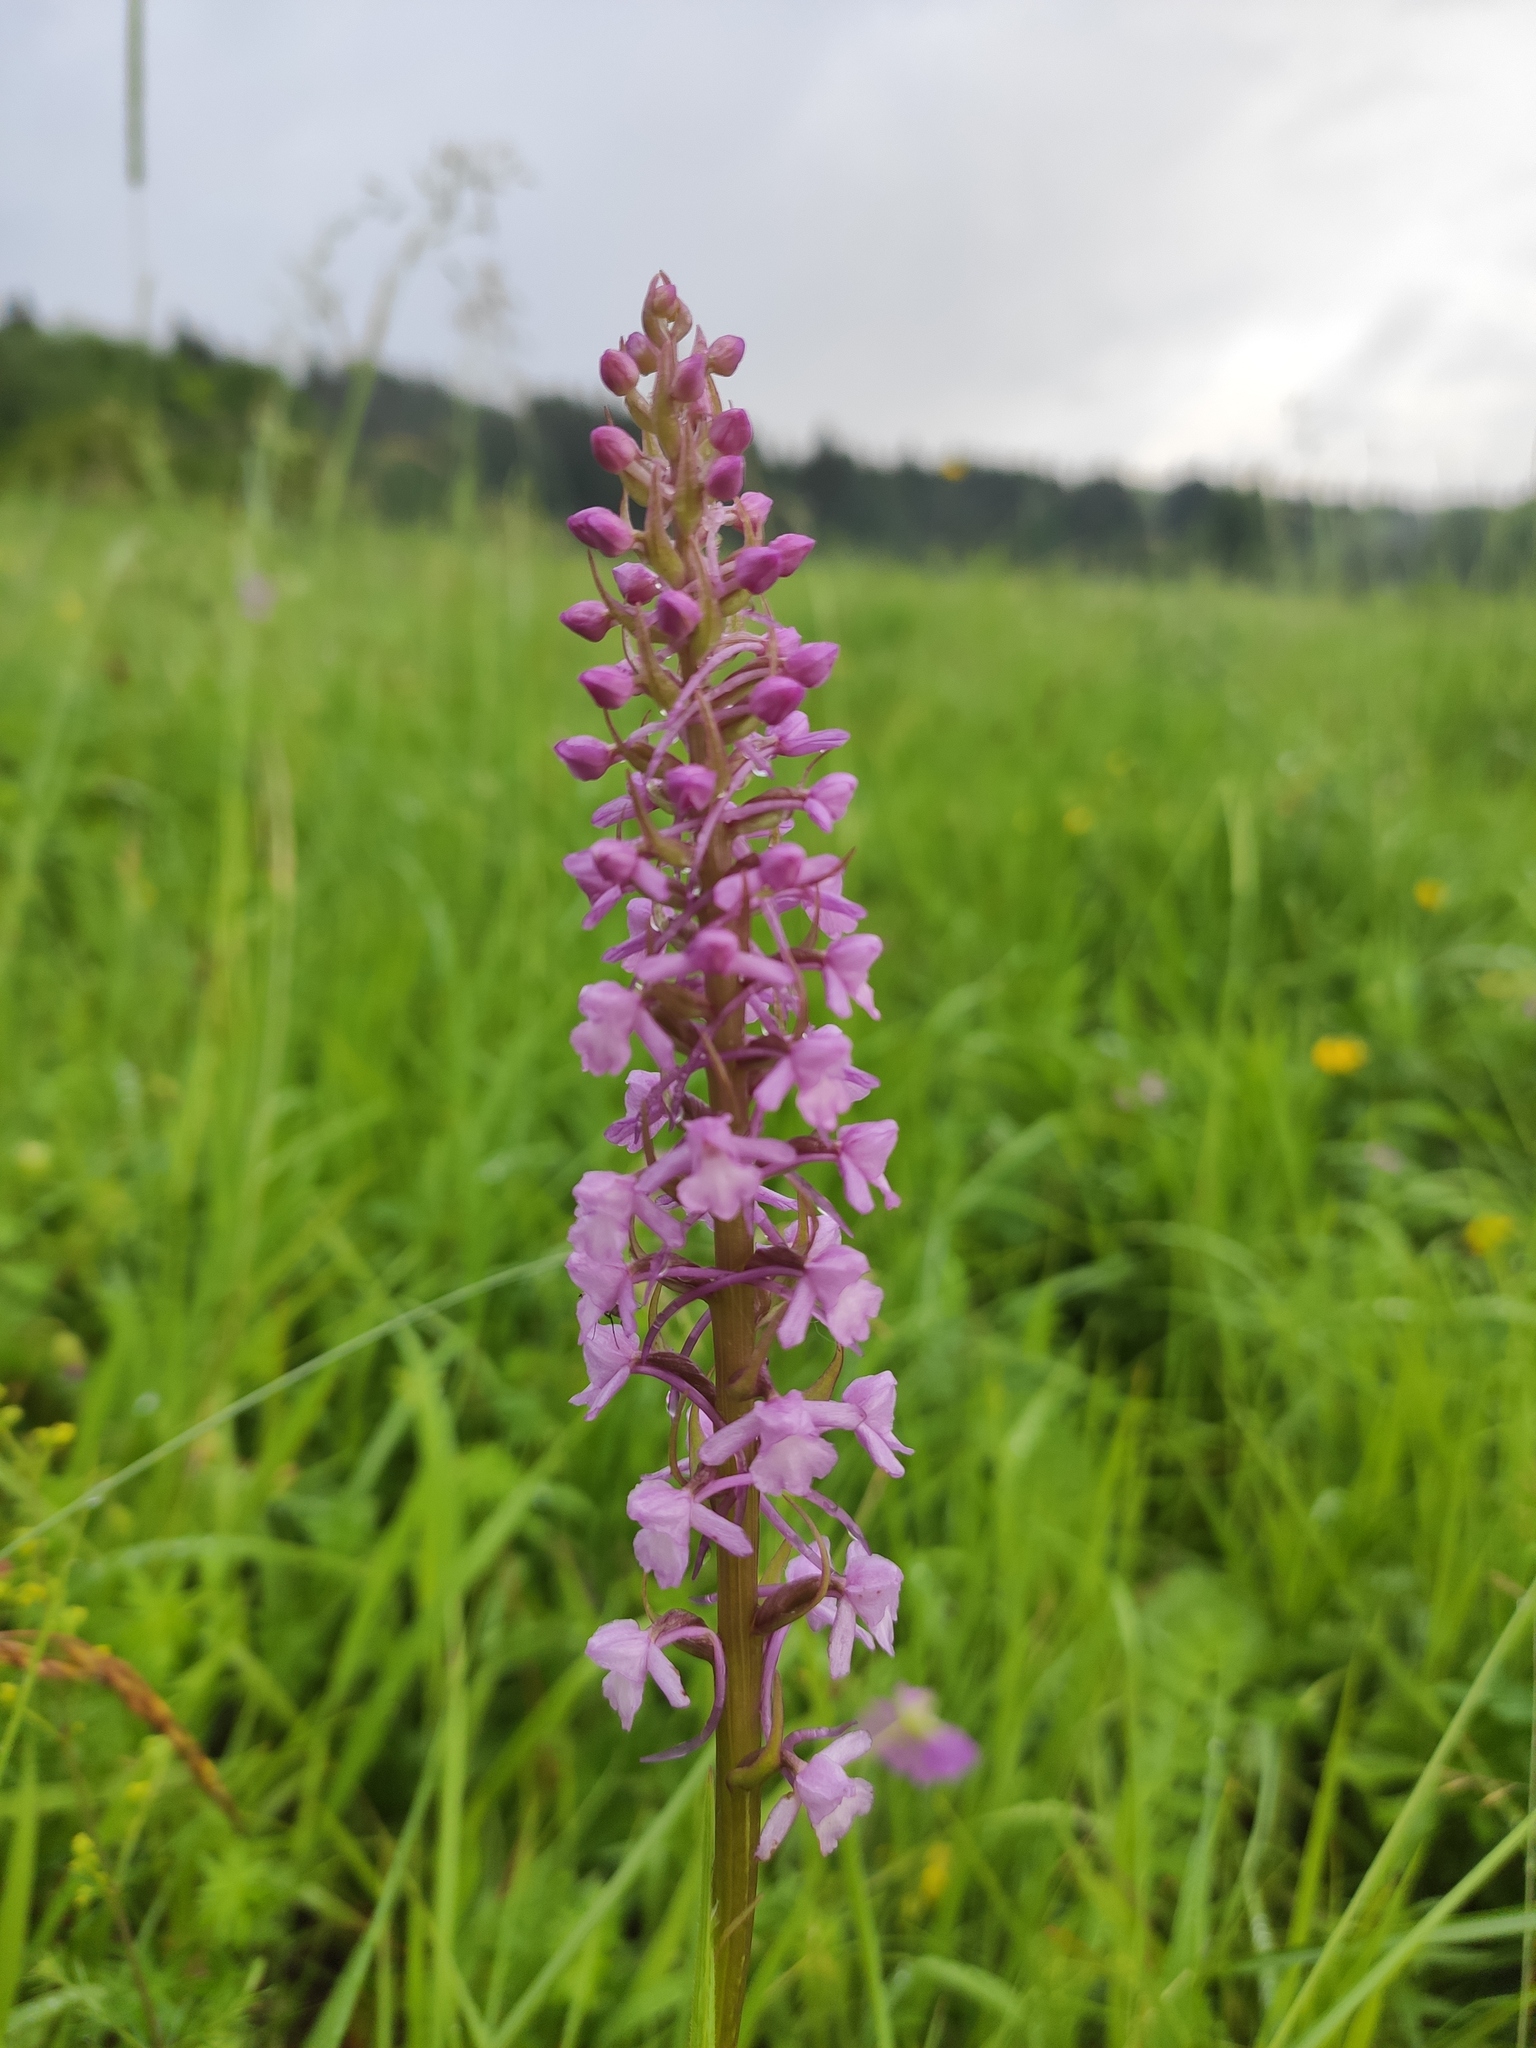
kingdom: Plantae
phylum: Tracheophyta
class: Liliopsida
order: Asparagales
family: Orchidaceae
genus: Gymnadenia
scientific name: Gymnadenia conopsea
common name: Fragrant orchid
